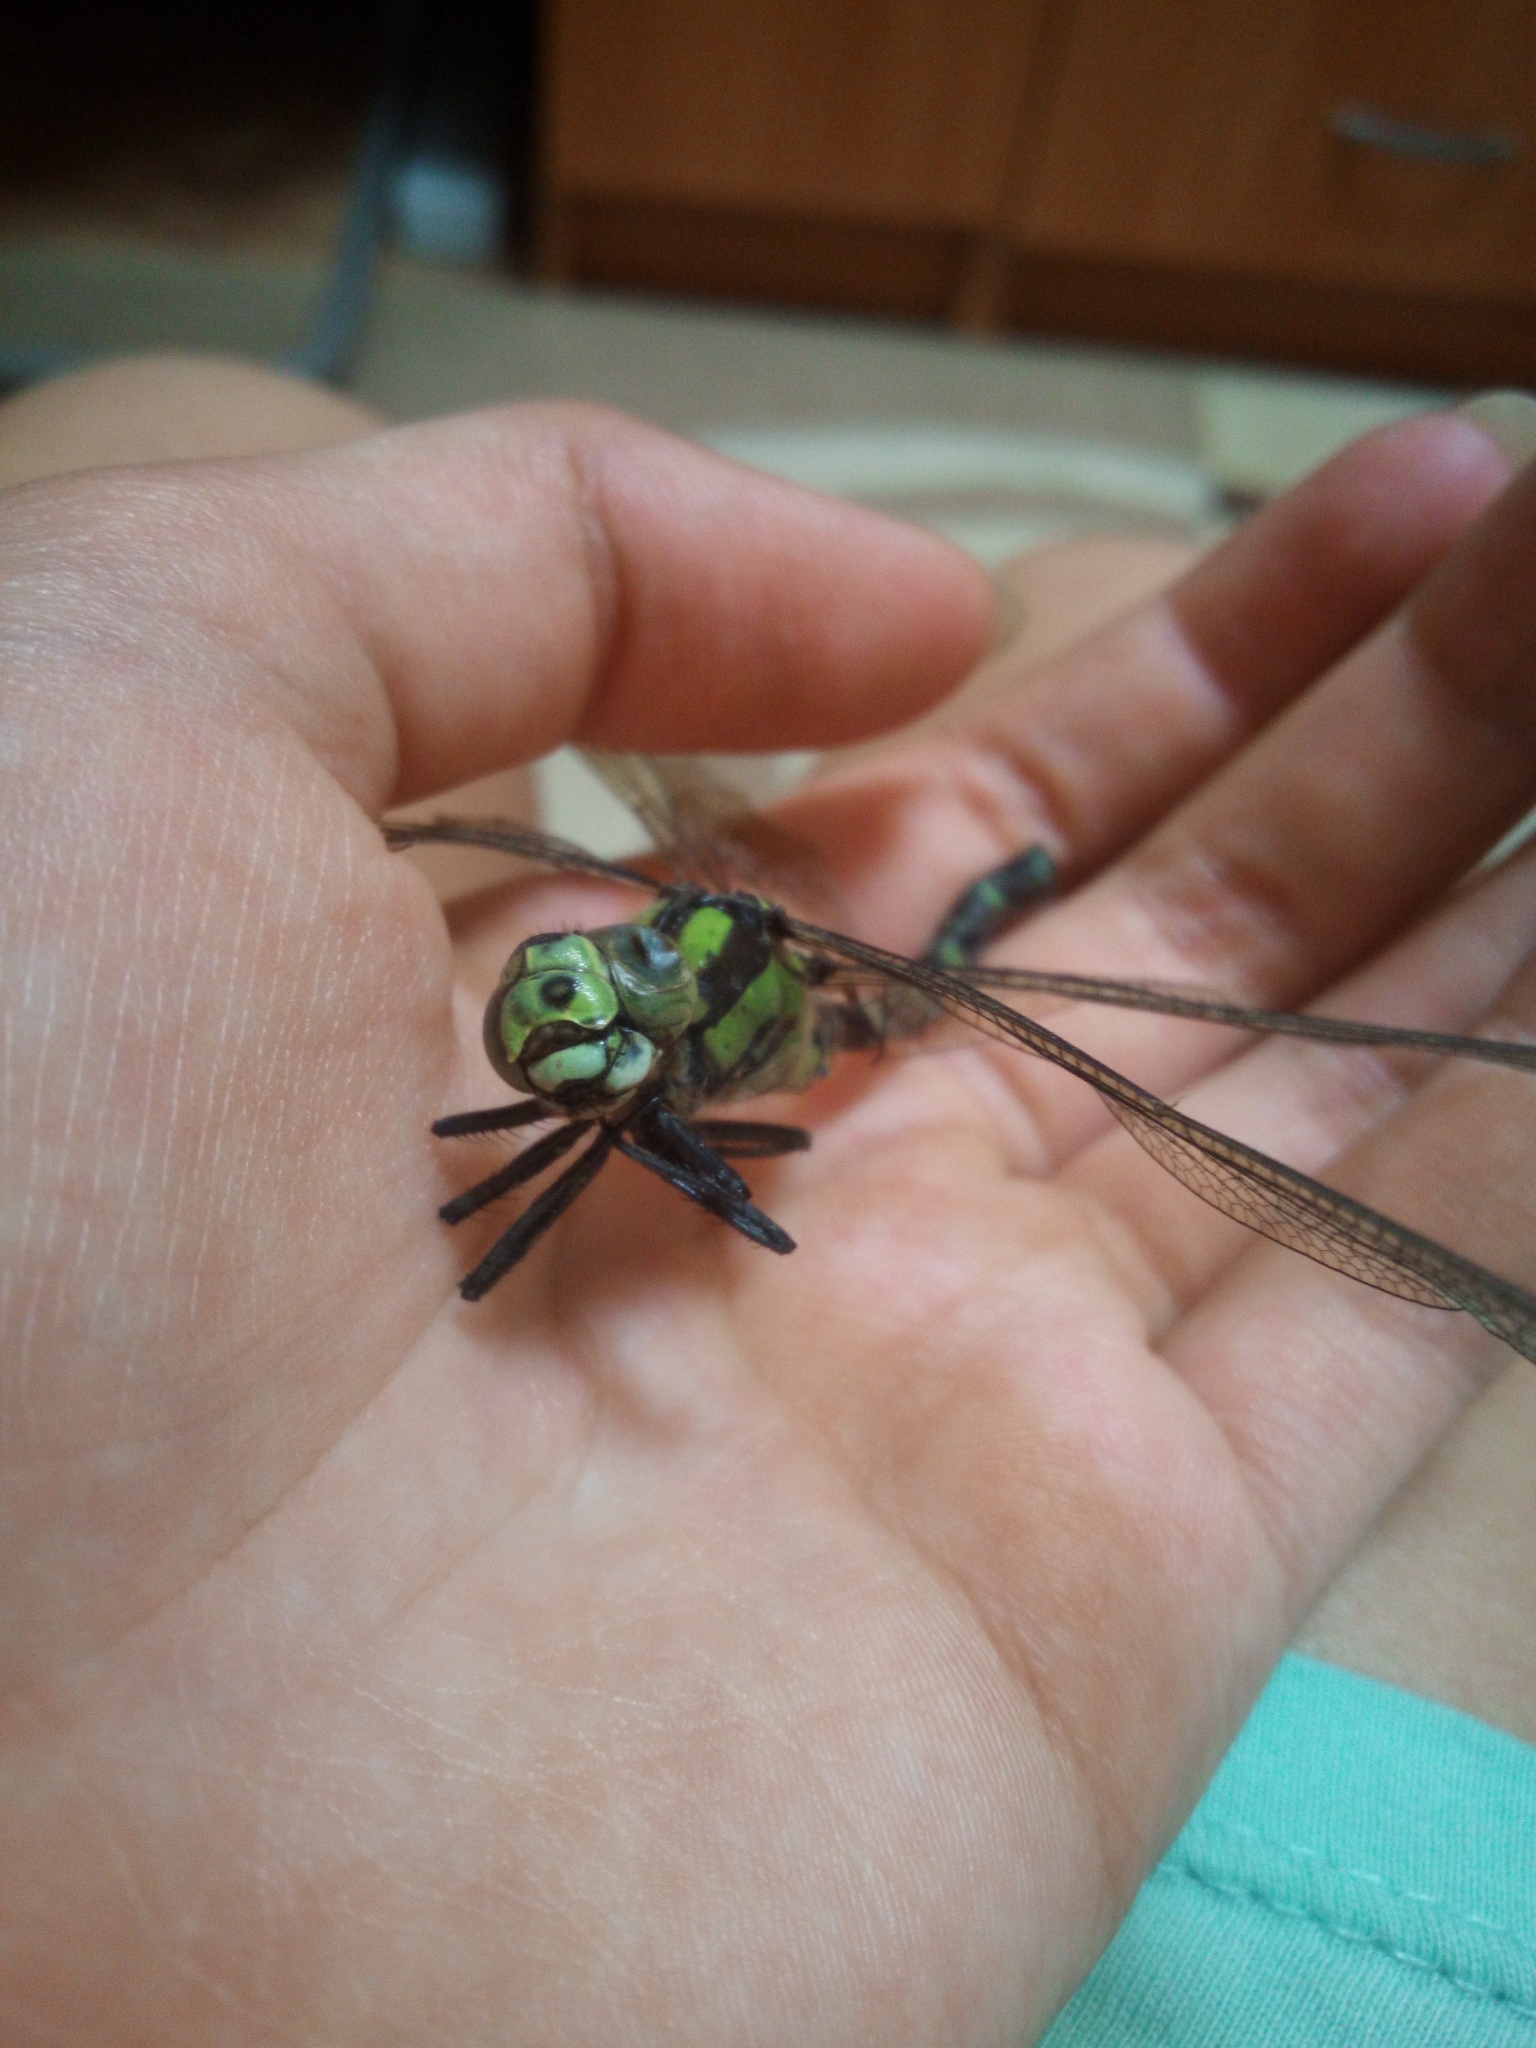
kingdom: Animalia
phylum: Arthropoda
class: Insecta
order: Odonata
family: Aeshnidae
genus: Aeshna
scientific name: Aeshna cyanea
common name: Southern hawker
